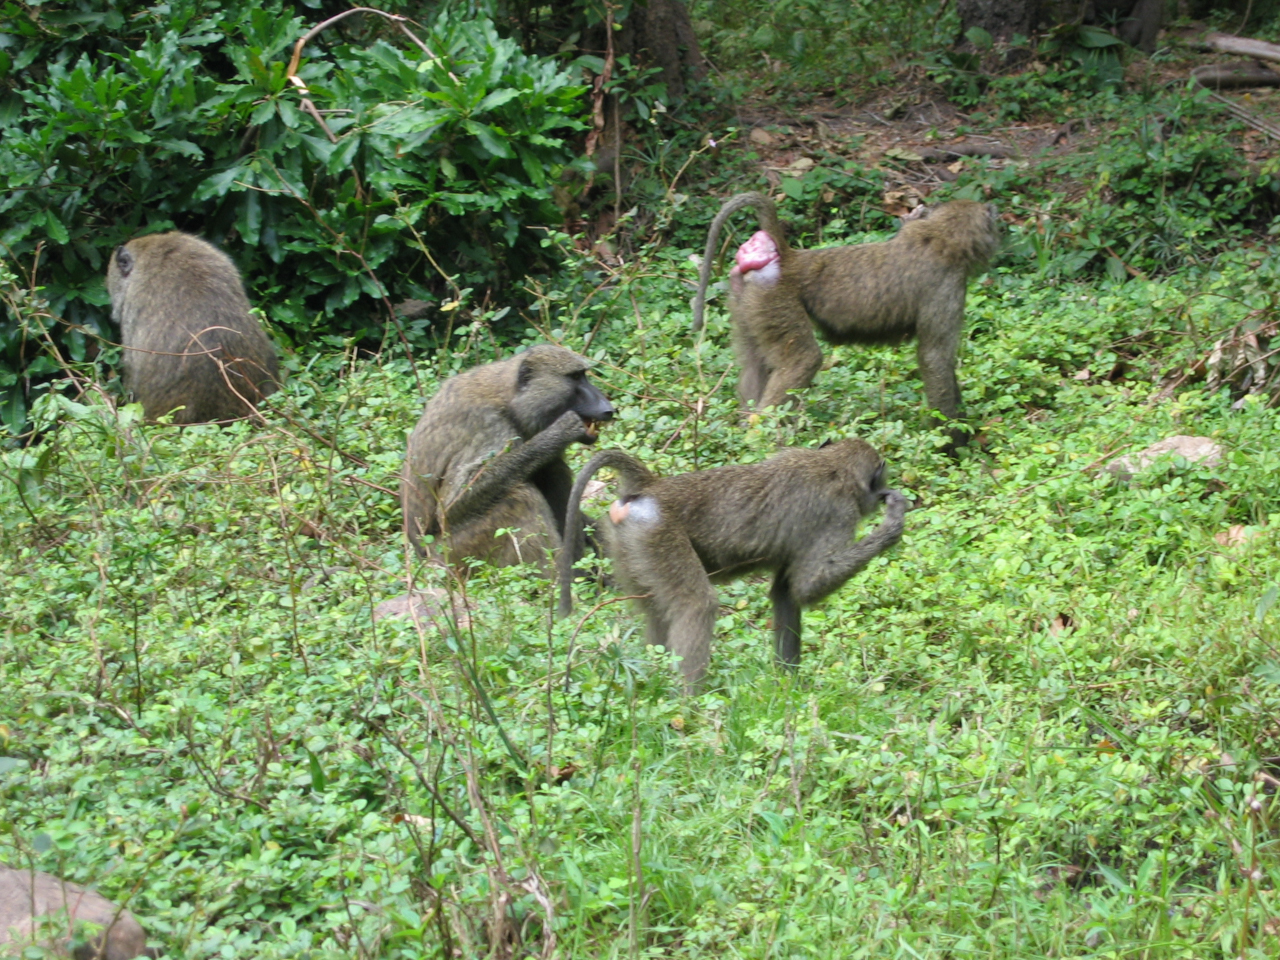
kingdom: Animalia
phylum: Chordata
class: Mammalia
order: Primates
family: Cercopithecidae
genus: Papio
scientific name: Papio anubis
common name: Olive baboon
